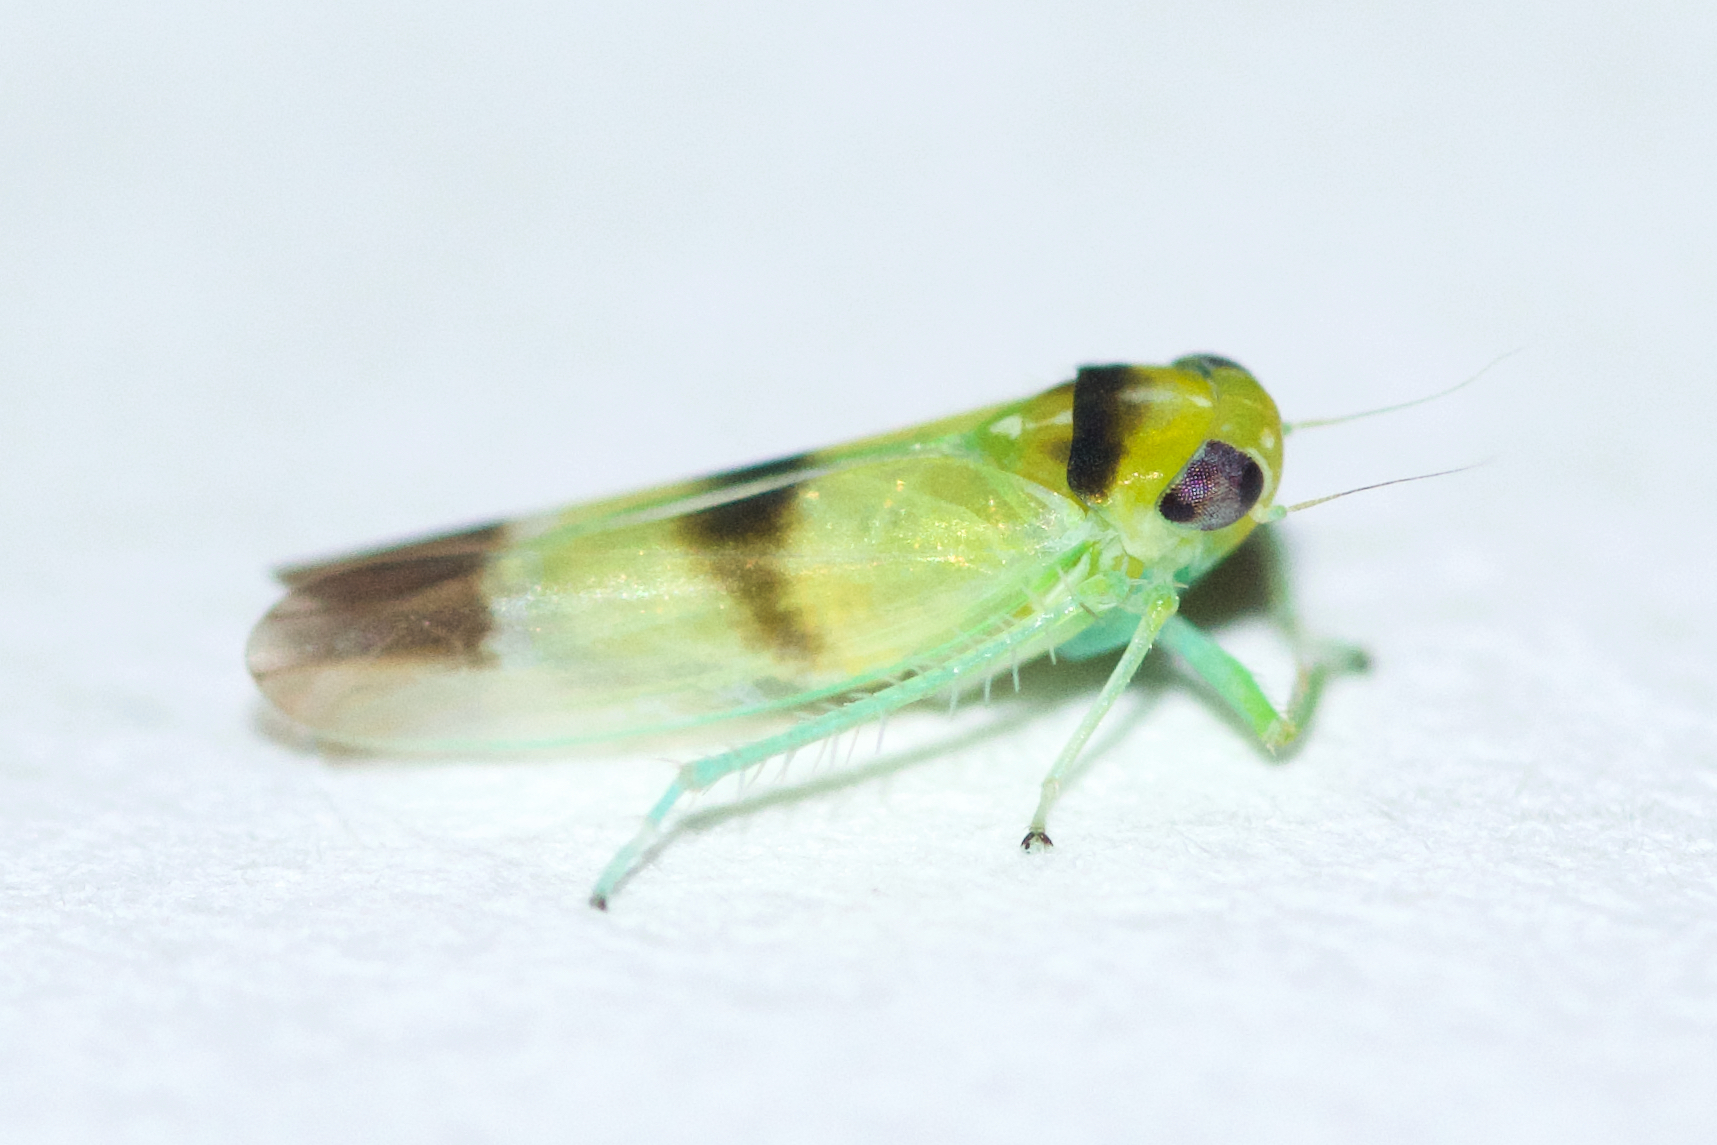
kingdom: Animalia
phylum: Arthropoda
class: Insecta
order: Hemiptera
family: Cicadellidae
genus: Kybos
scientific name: Kybos trifasciatus
